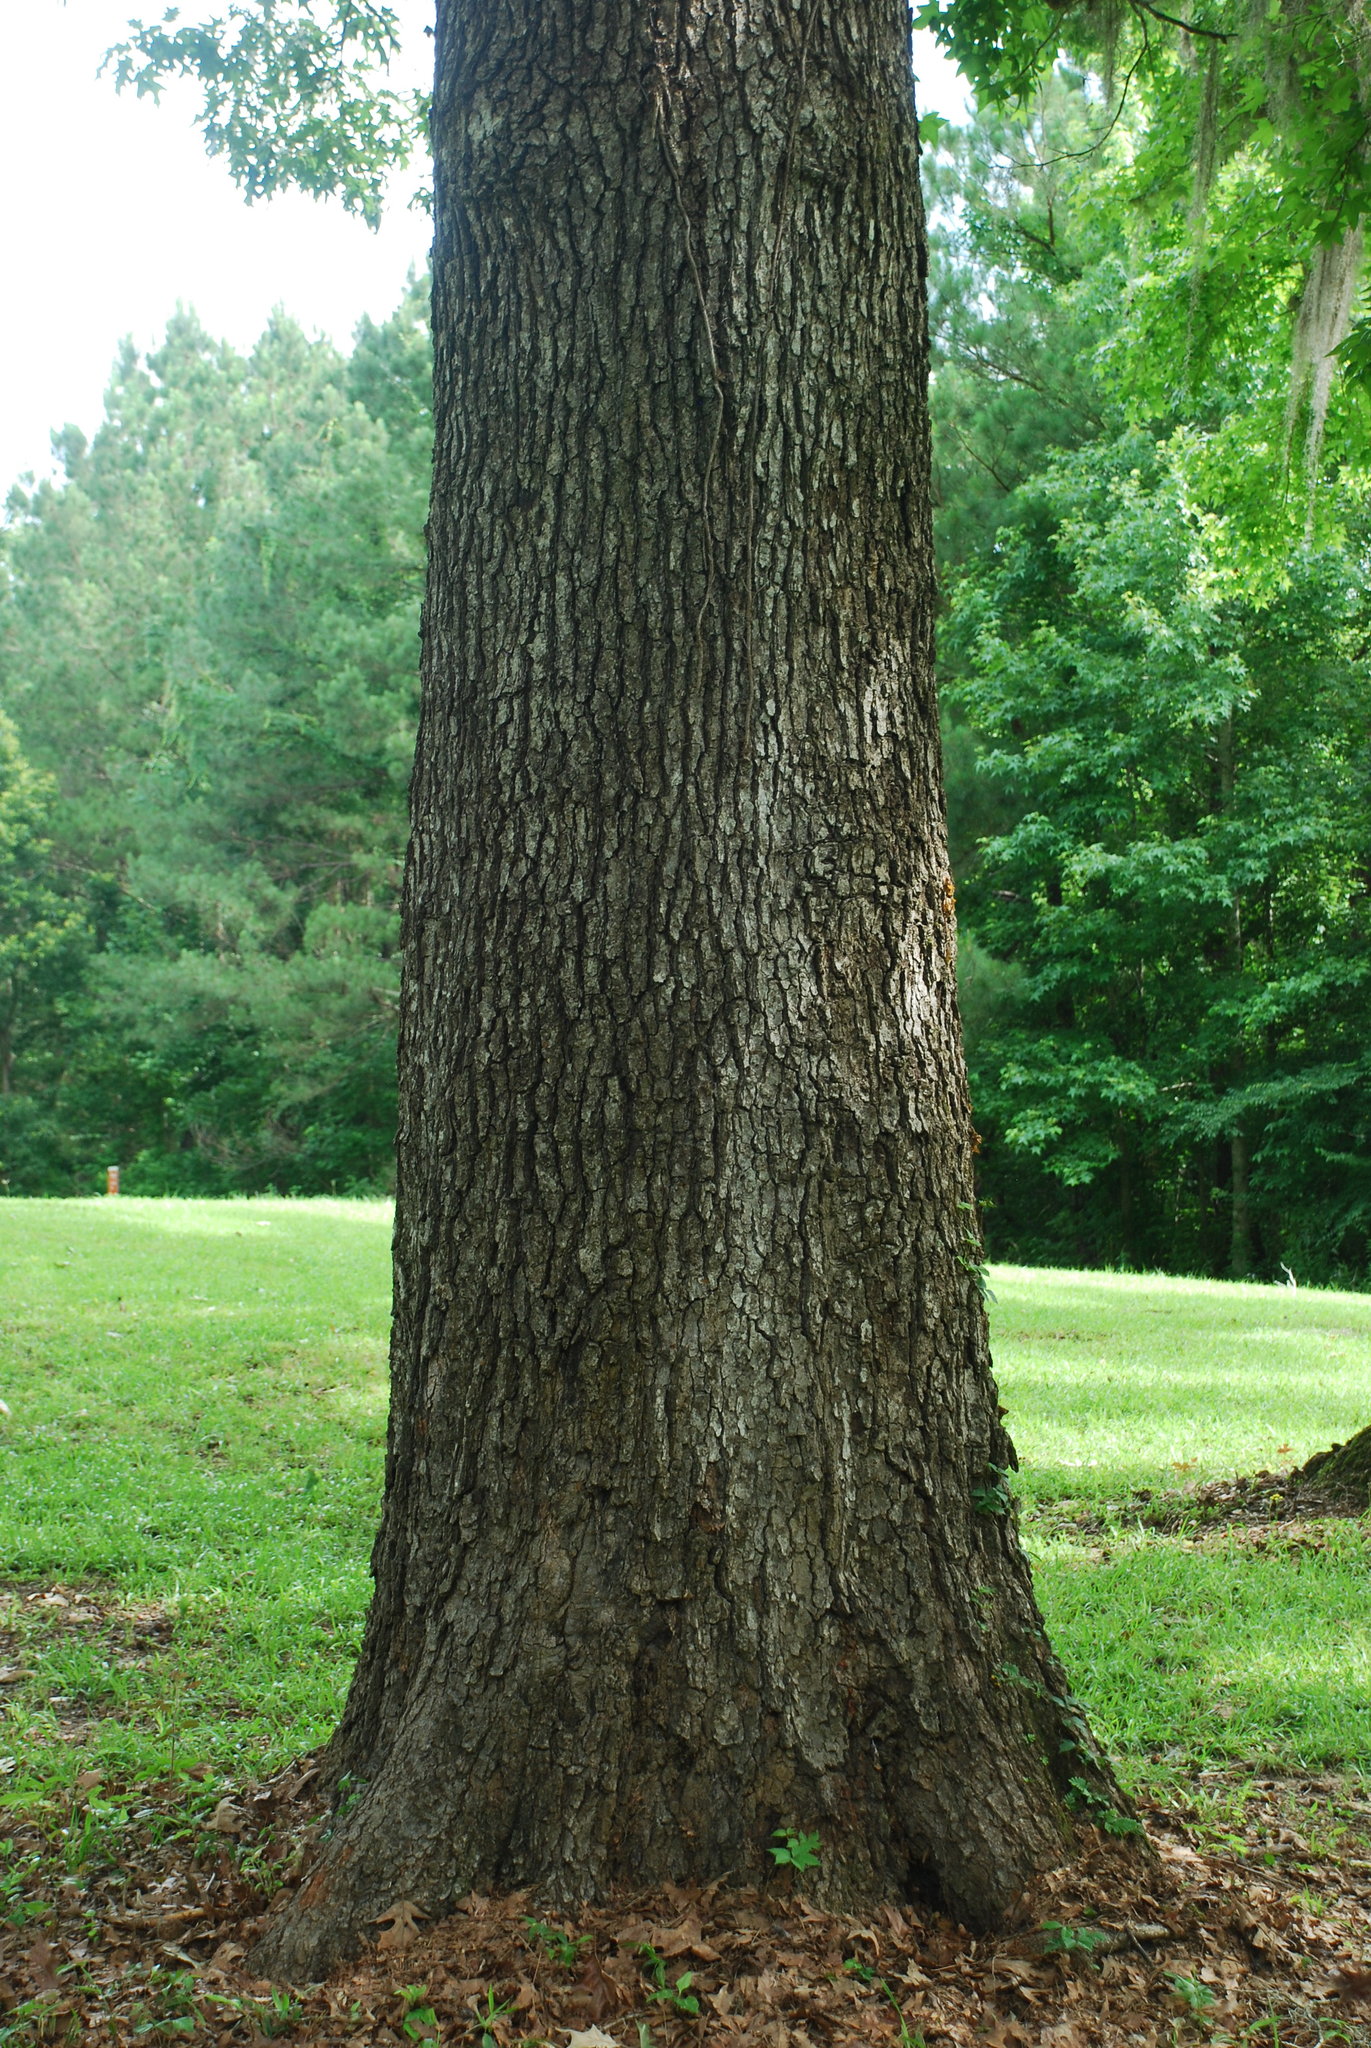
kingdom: Plantae
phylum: Tracheophyta
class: Magnoliopsida
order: Fagales
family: Fagaceae
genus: Quercus
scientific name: Quercus pagoda
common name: Cherrybark oak
